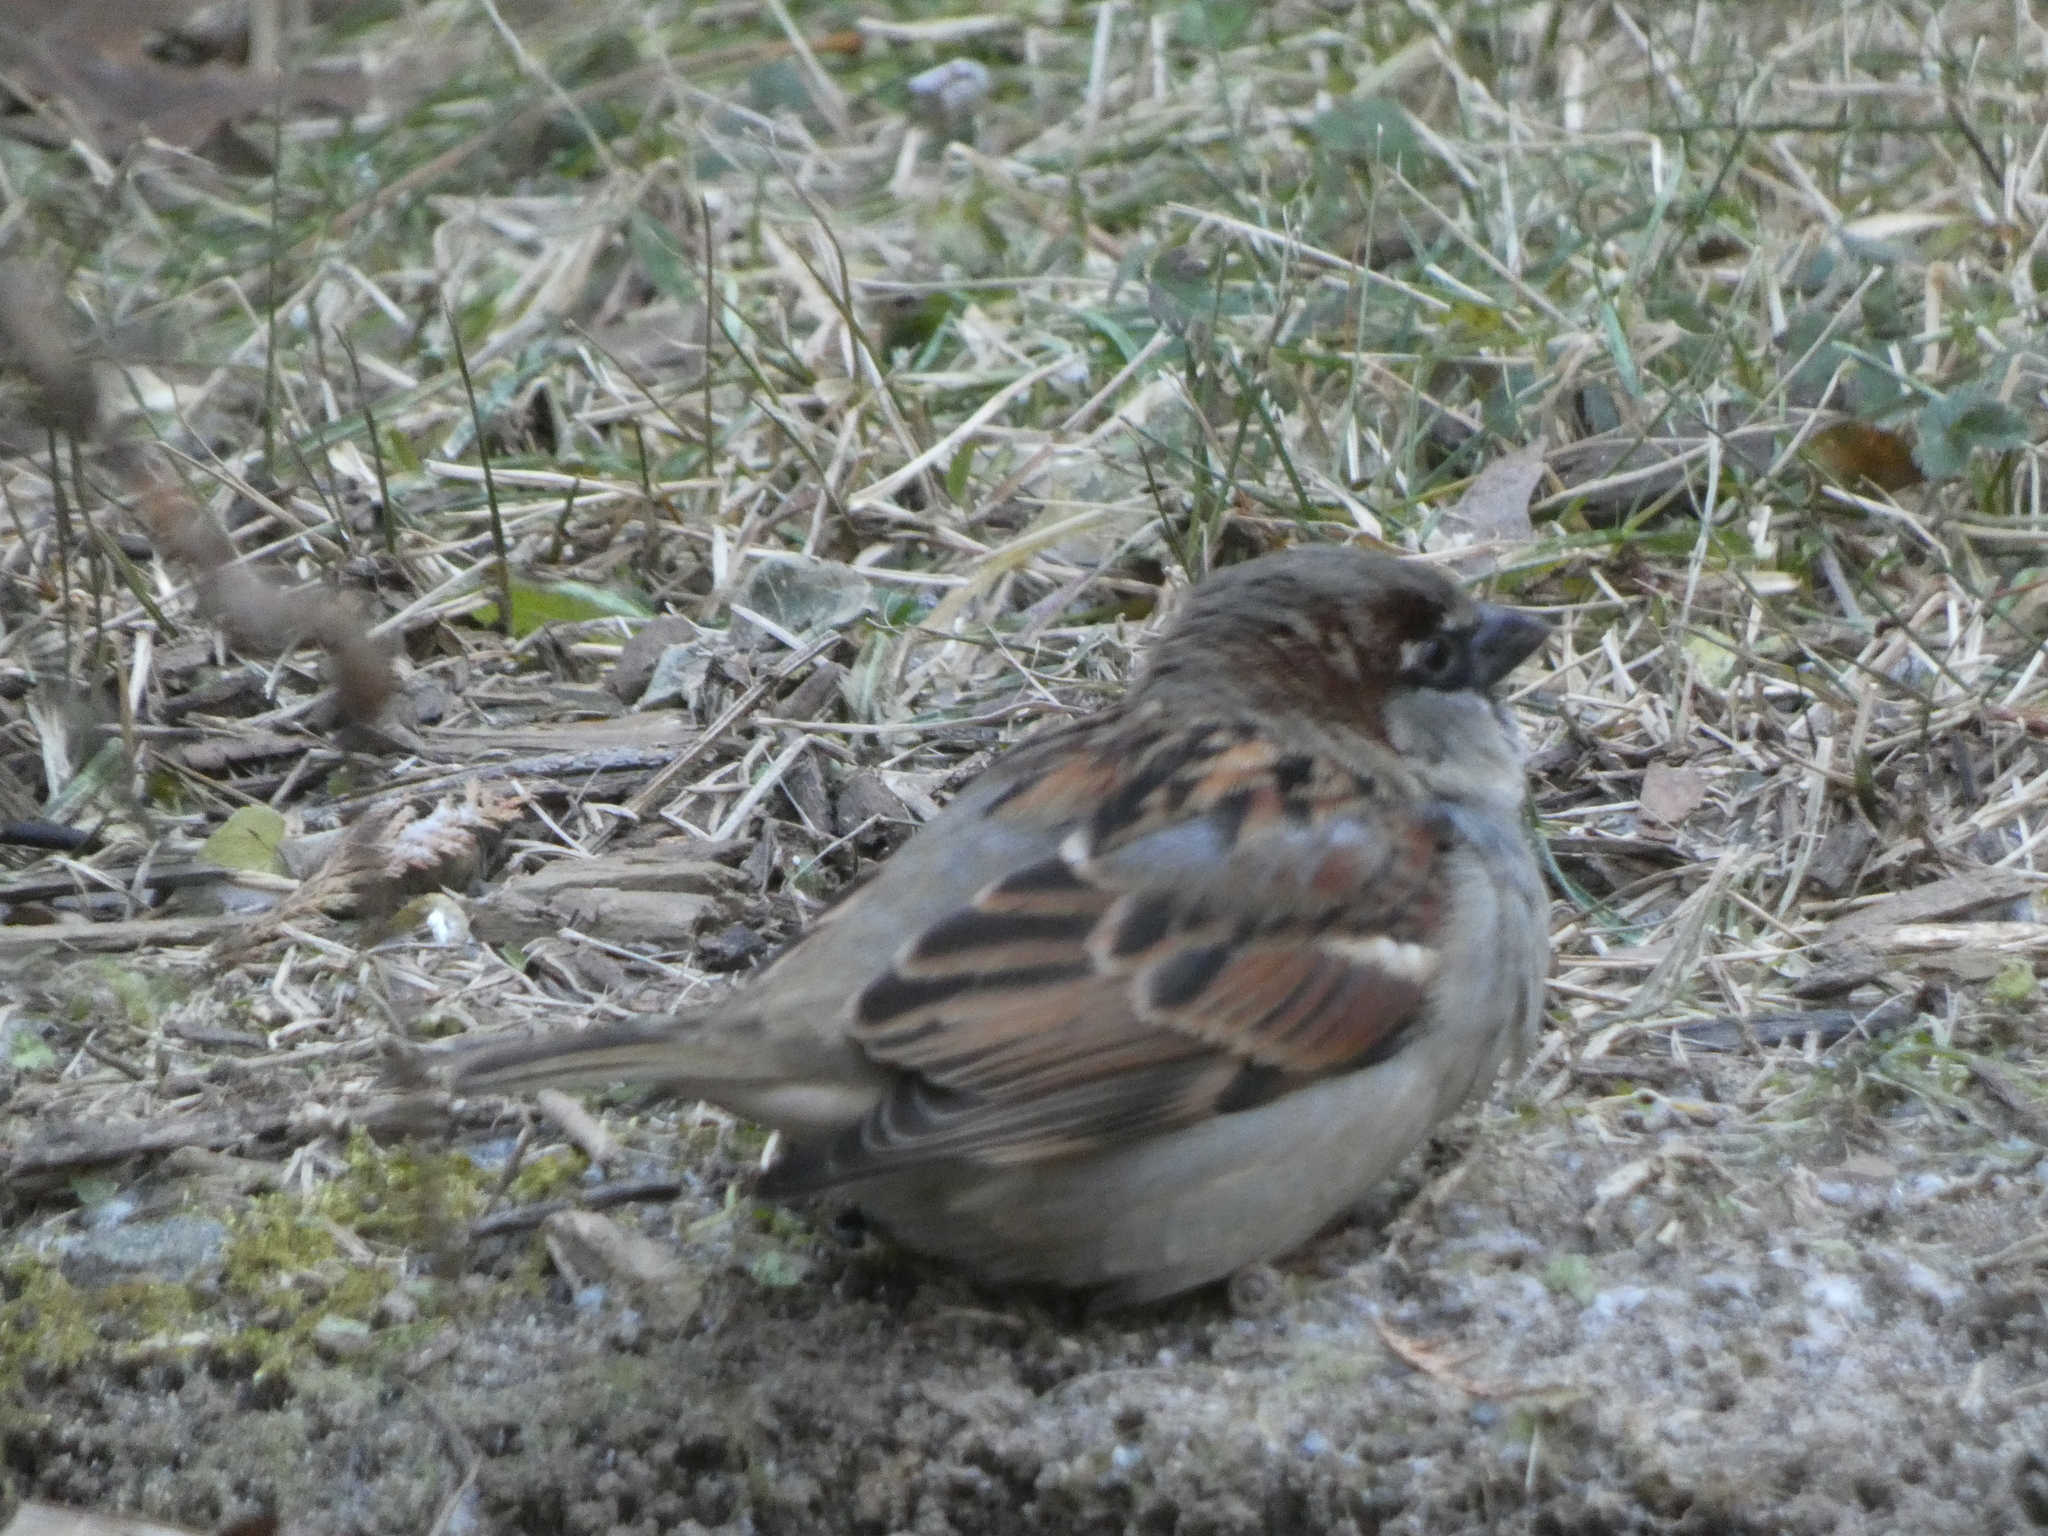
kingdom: Animalia
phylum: Chordata
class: Aves
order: Passeriformes
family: Passeridae
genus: Passer
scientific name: Passer domesticus
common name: House sparrow
